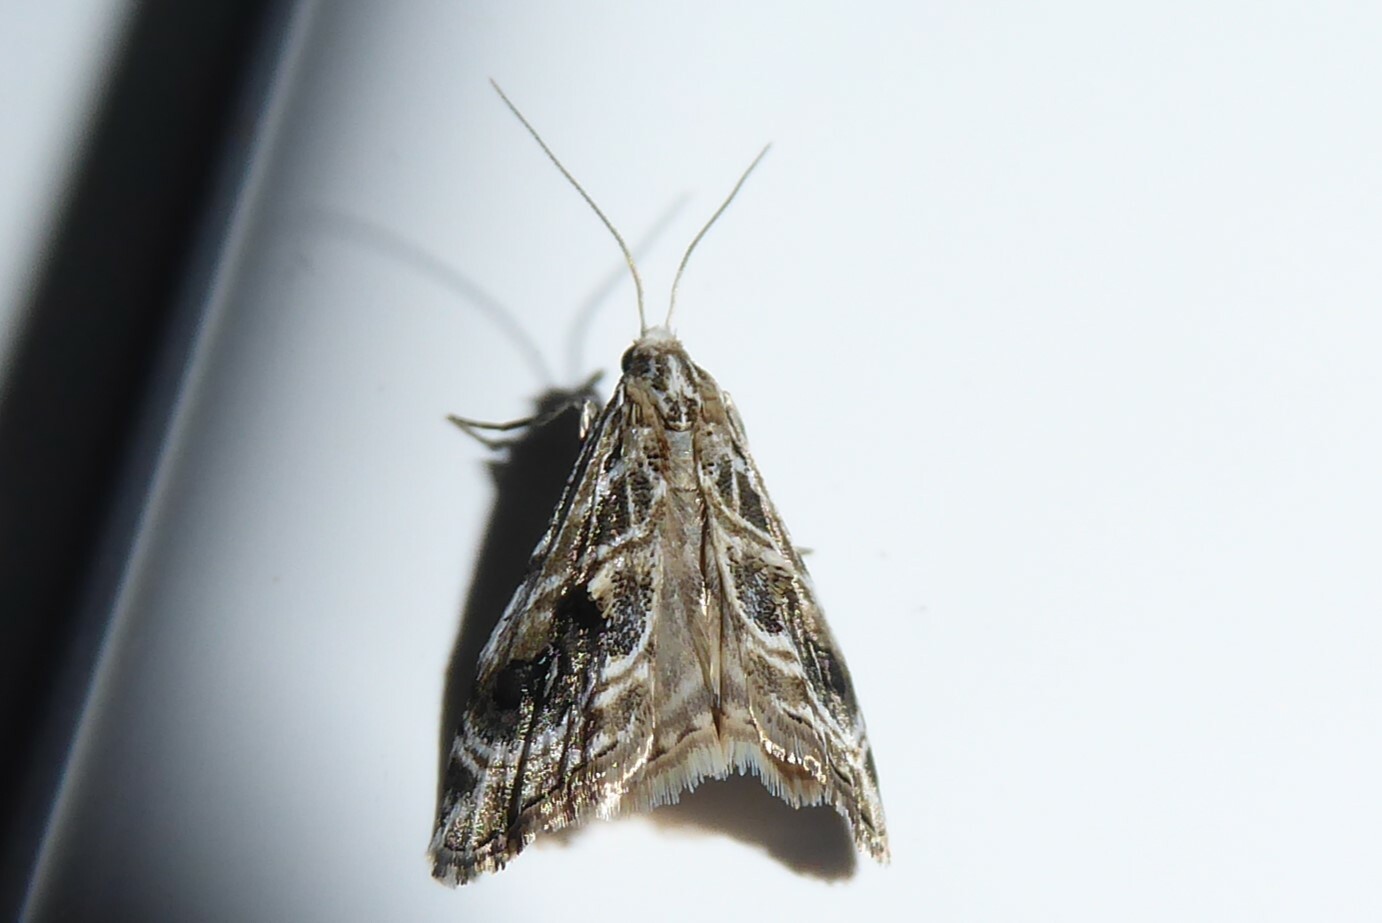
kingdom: Animalia
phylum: Arthropoda
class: Insecta
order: Lepidoptera
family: Crambidae
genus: Gadira
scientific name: Gadira acerella
